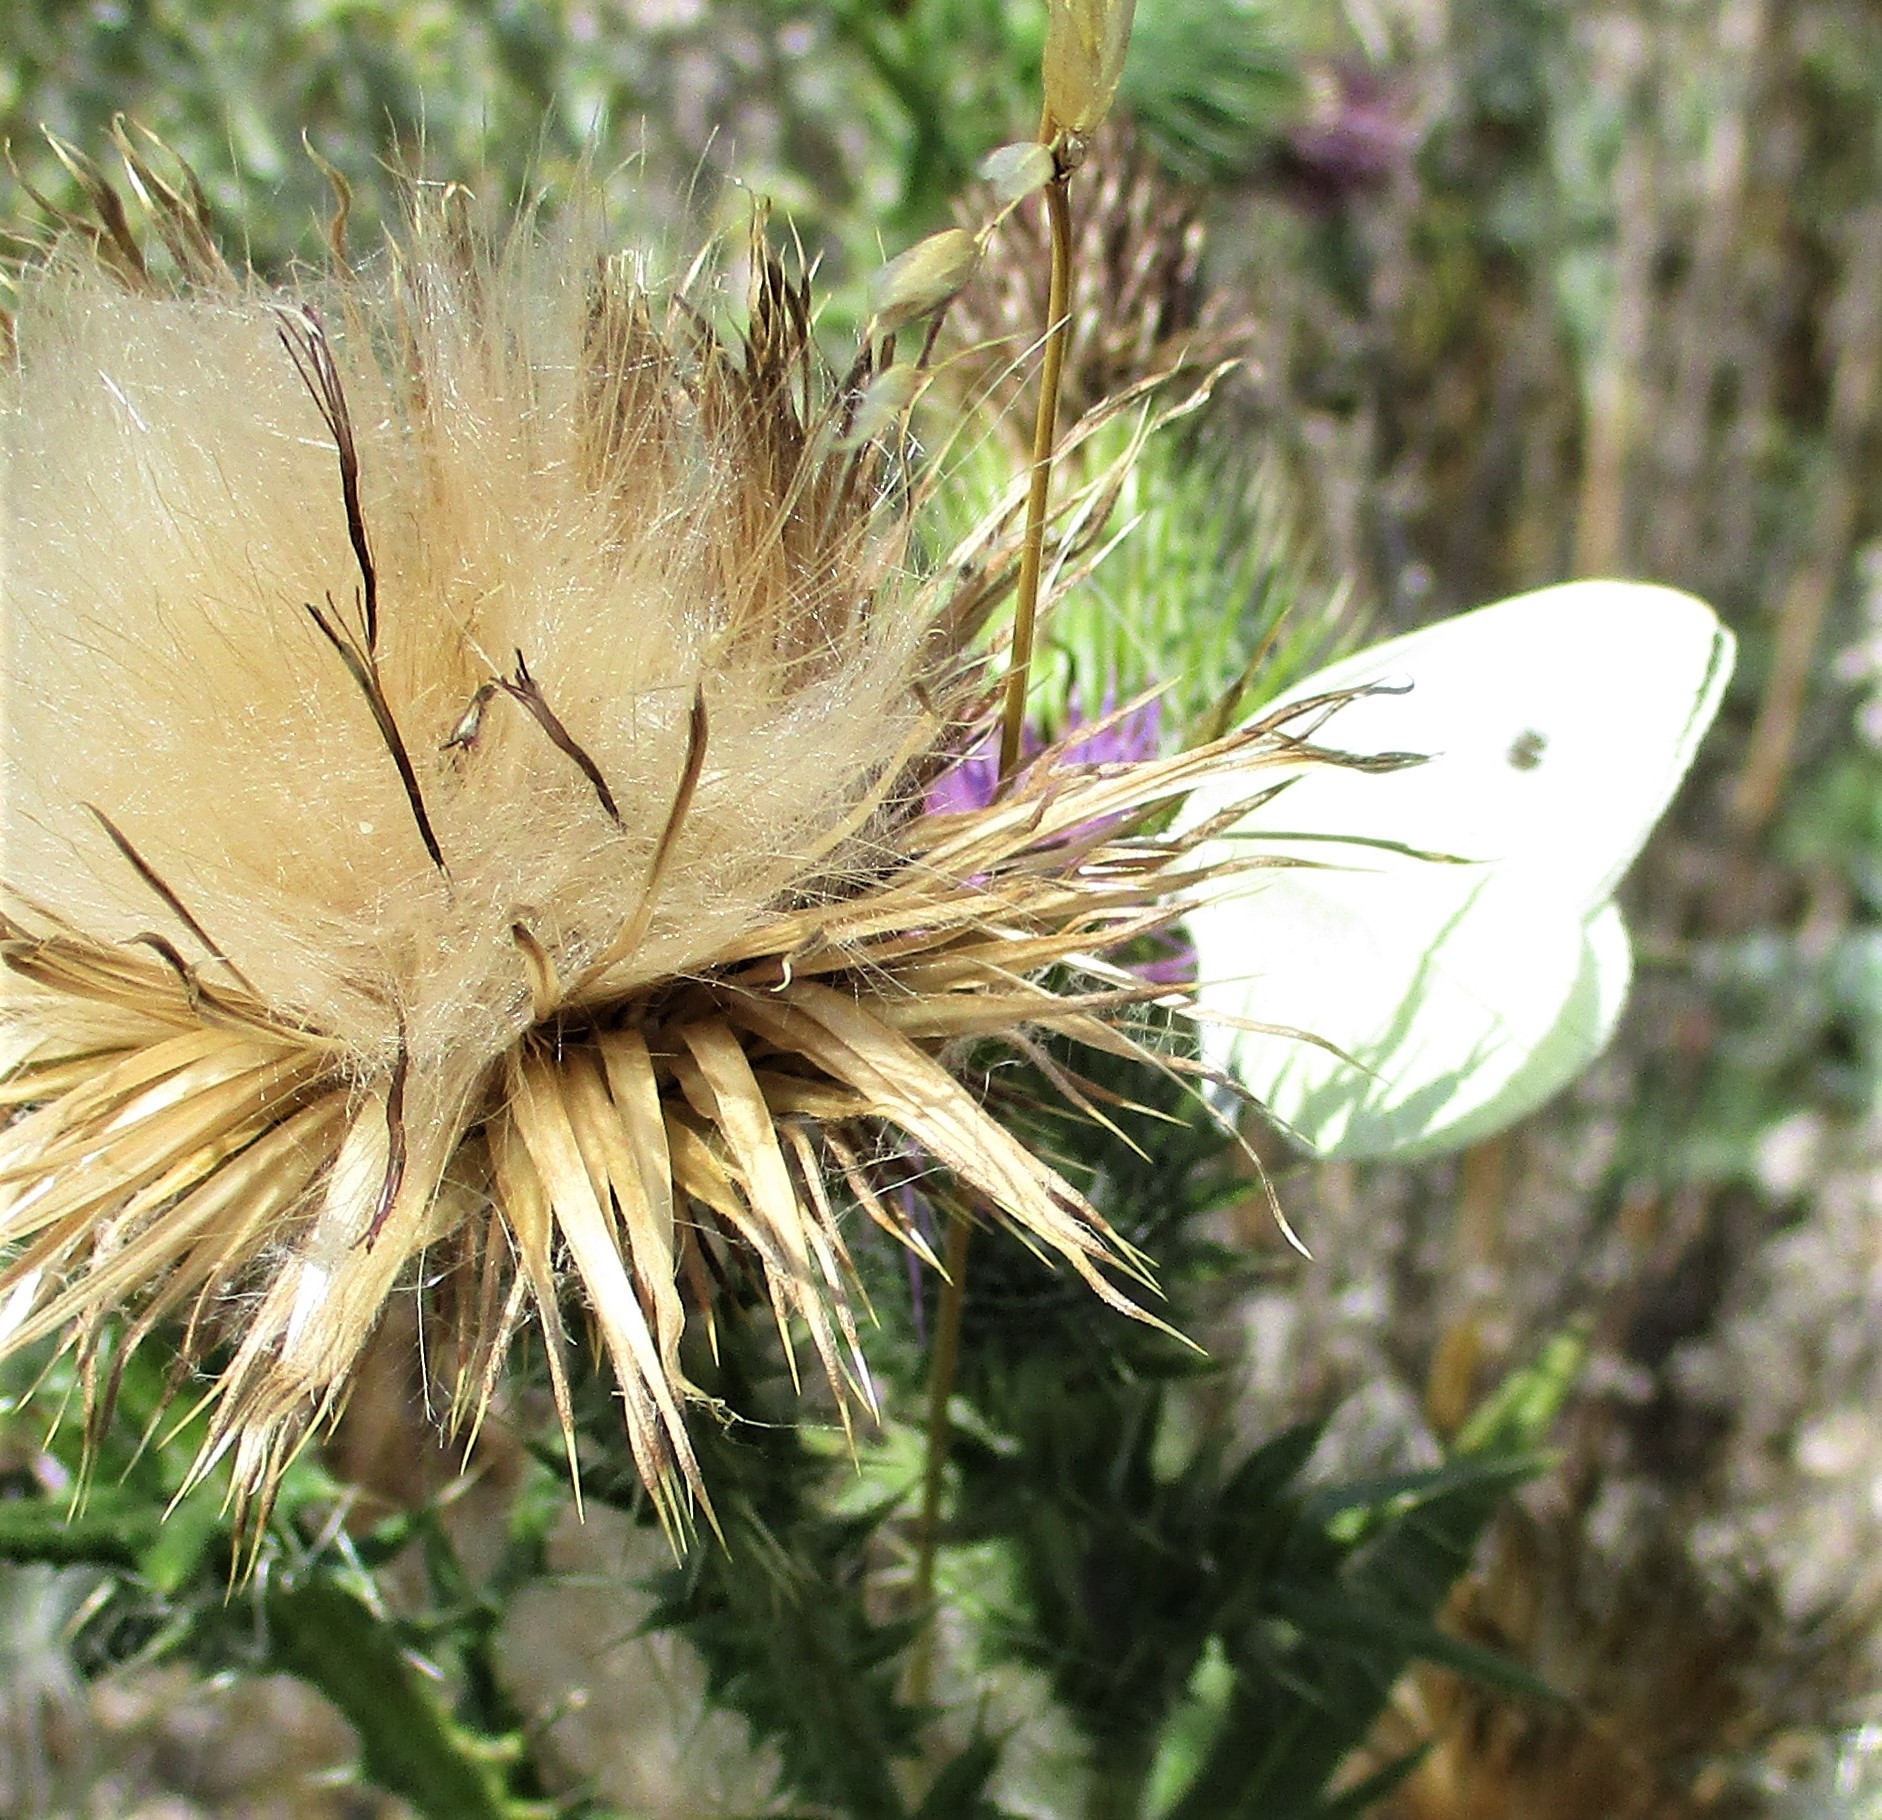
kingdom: Animalia
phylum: Arthropoda
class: Insecta
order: Lepidoptera
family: Pieridae
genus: Pieris
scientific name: Pieris rapae
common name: Small white
